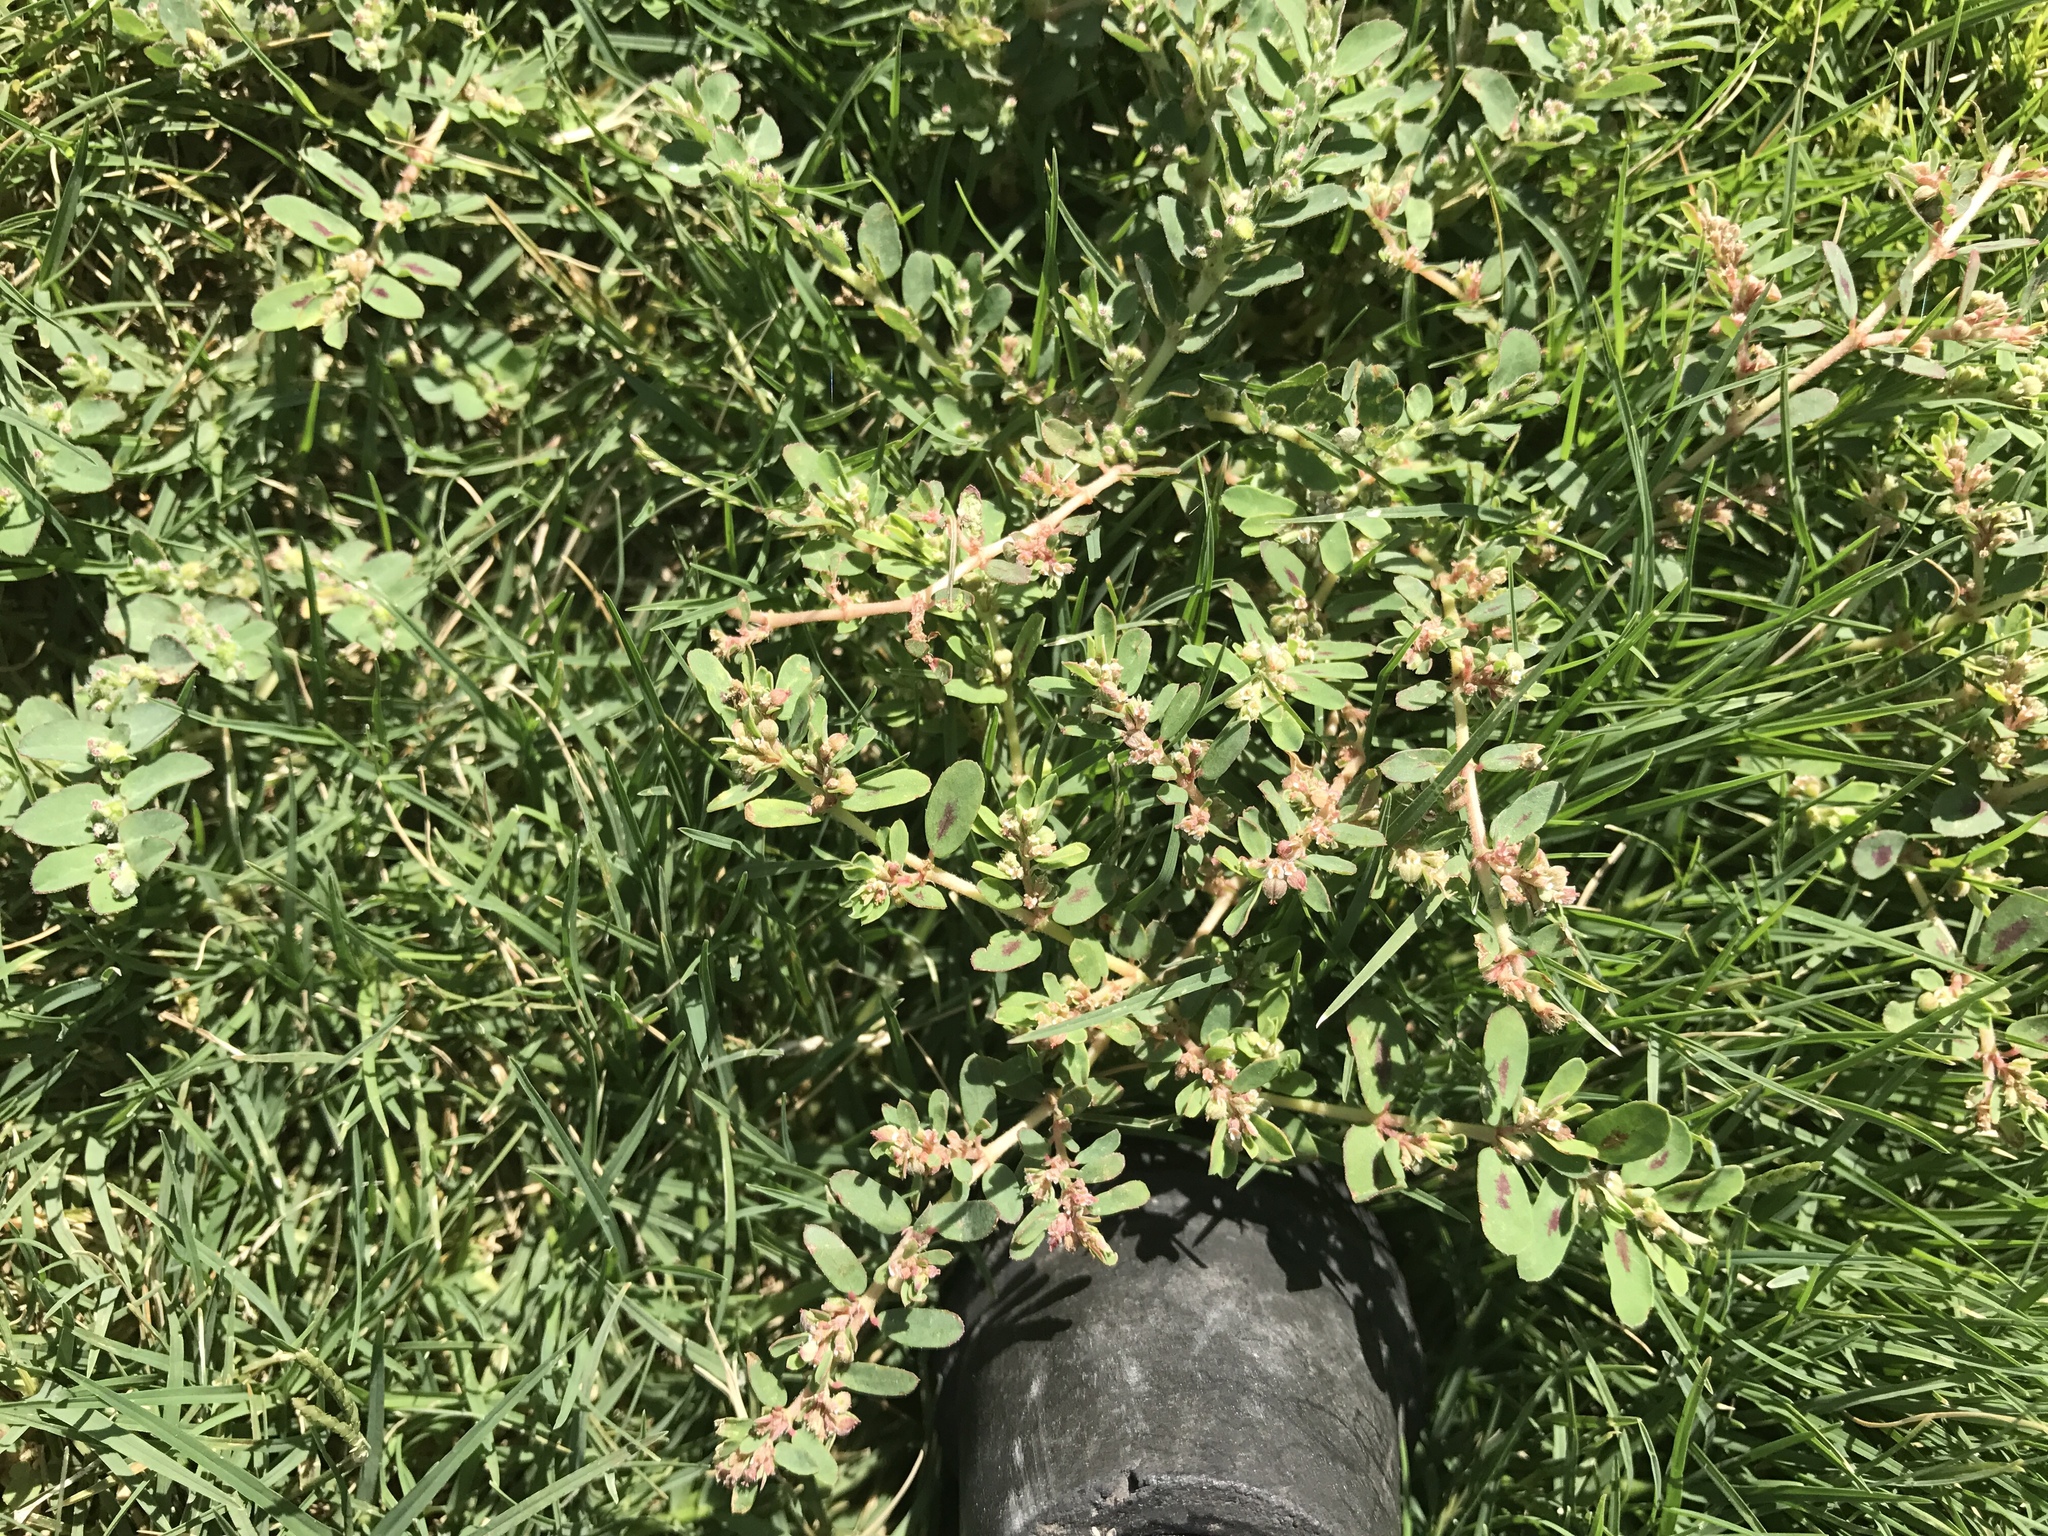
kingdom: Plantae
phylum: Tracheophyta
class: Magnoliopsida
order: Malpighiales
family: Euphorbiaceae
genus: Euphorbia
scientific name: Euphorbia maculata
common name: Spotted spurge
